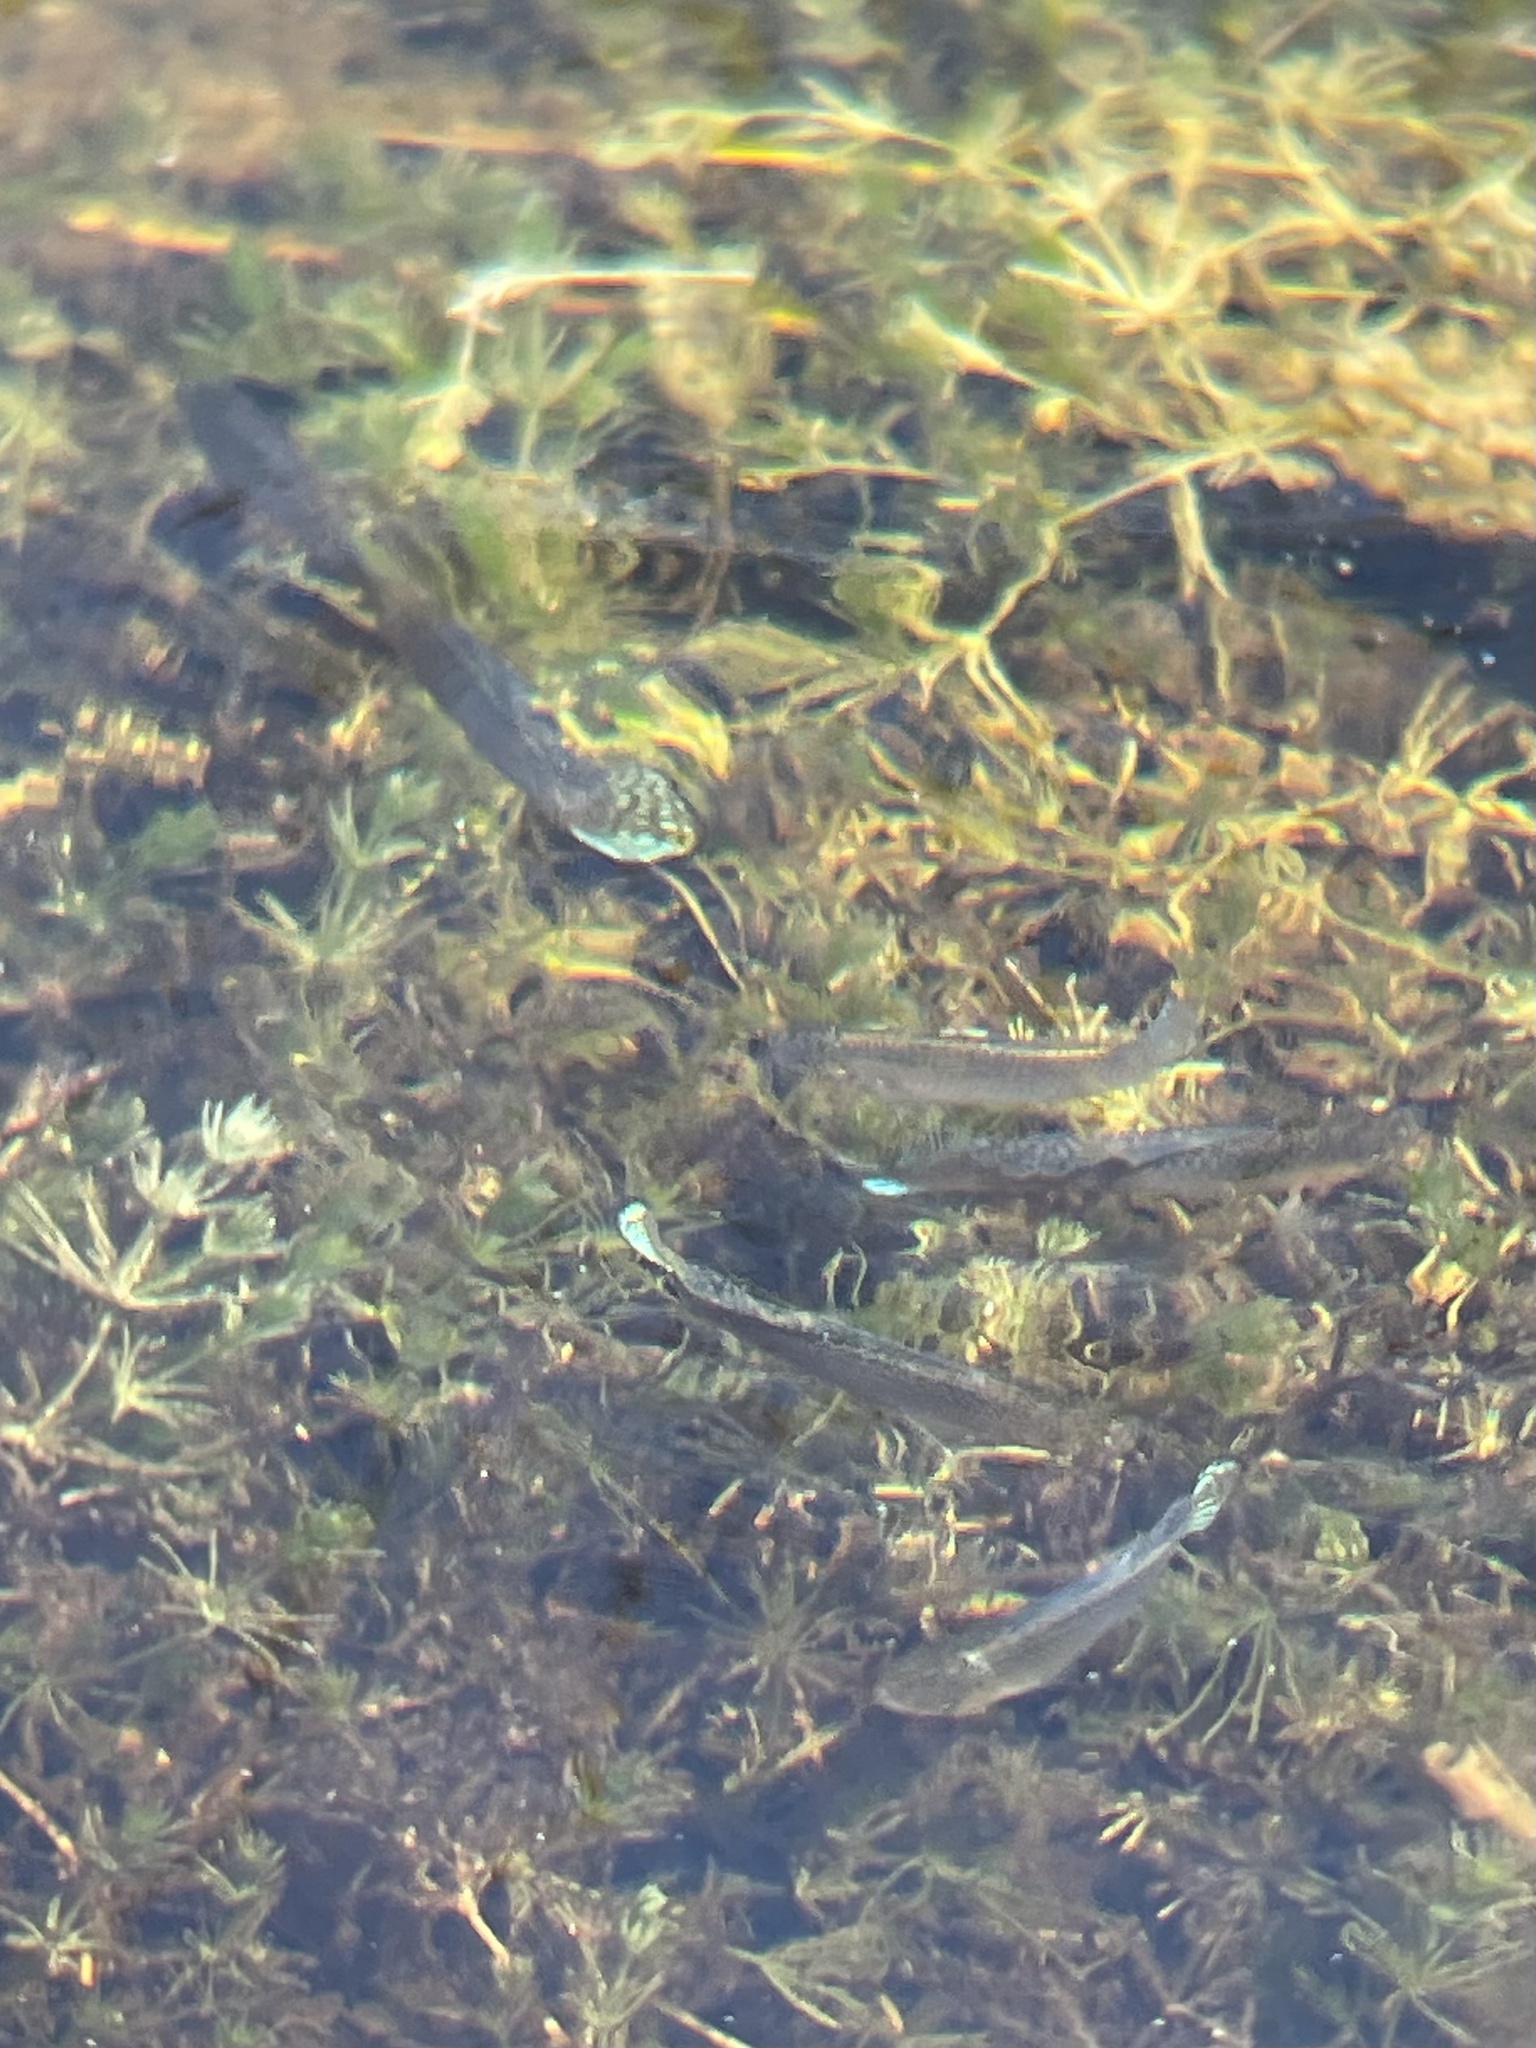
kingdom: Animalia
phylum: Chordata
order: Cyprinodontiformes
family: Poeciliidae
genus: Poecilia
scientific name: Poecilia latipinna
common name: Sailfin molly
